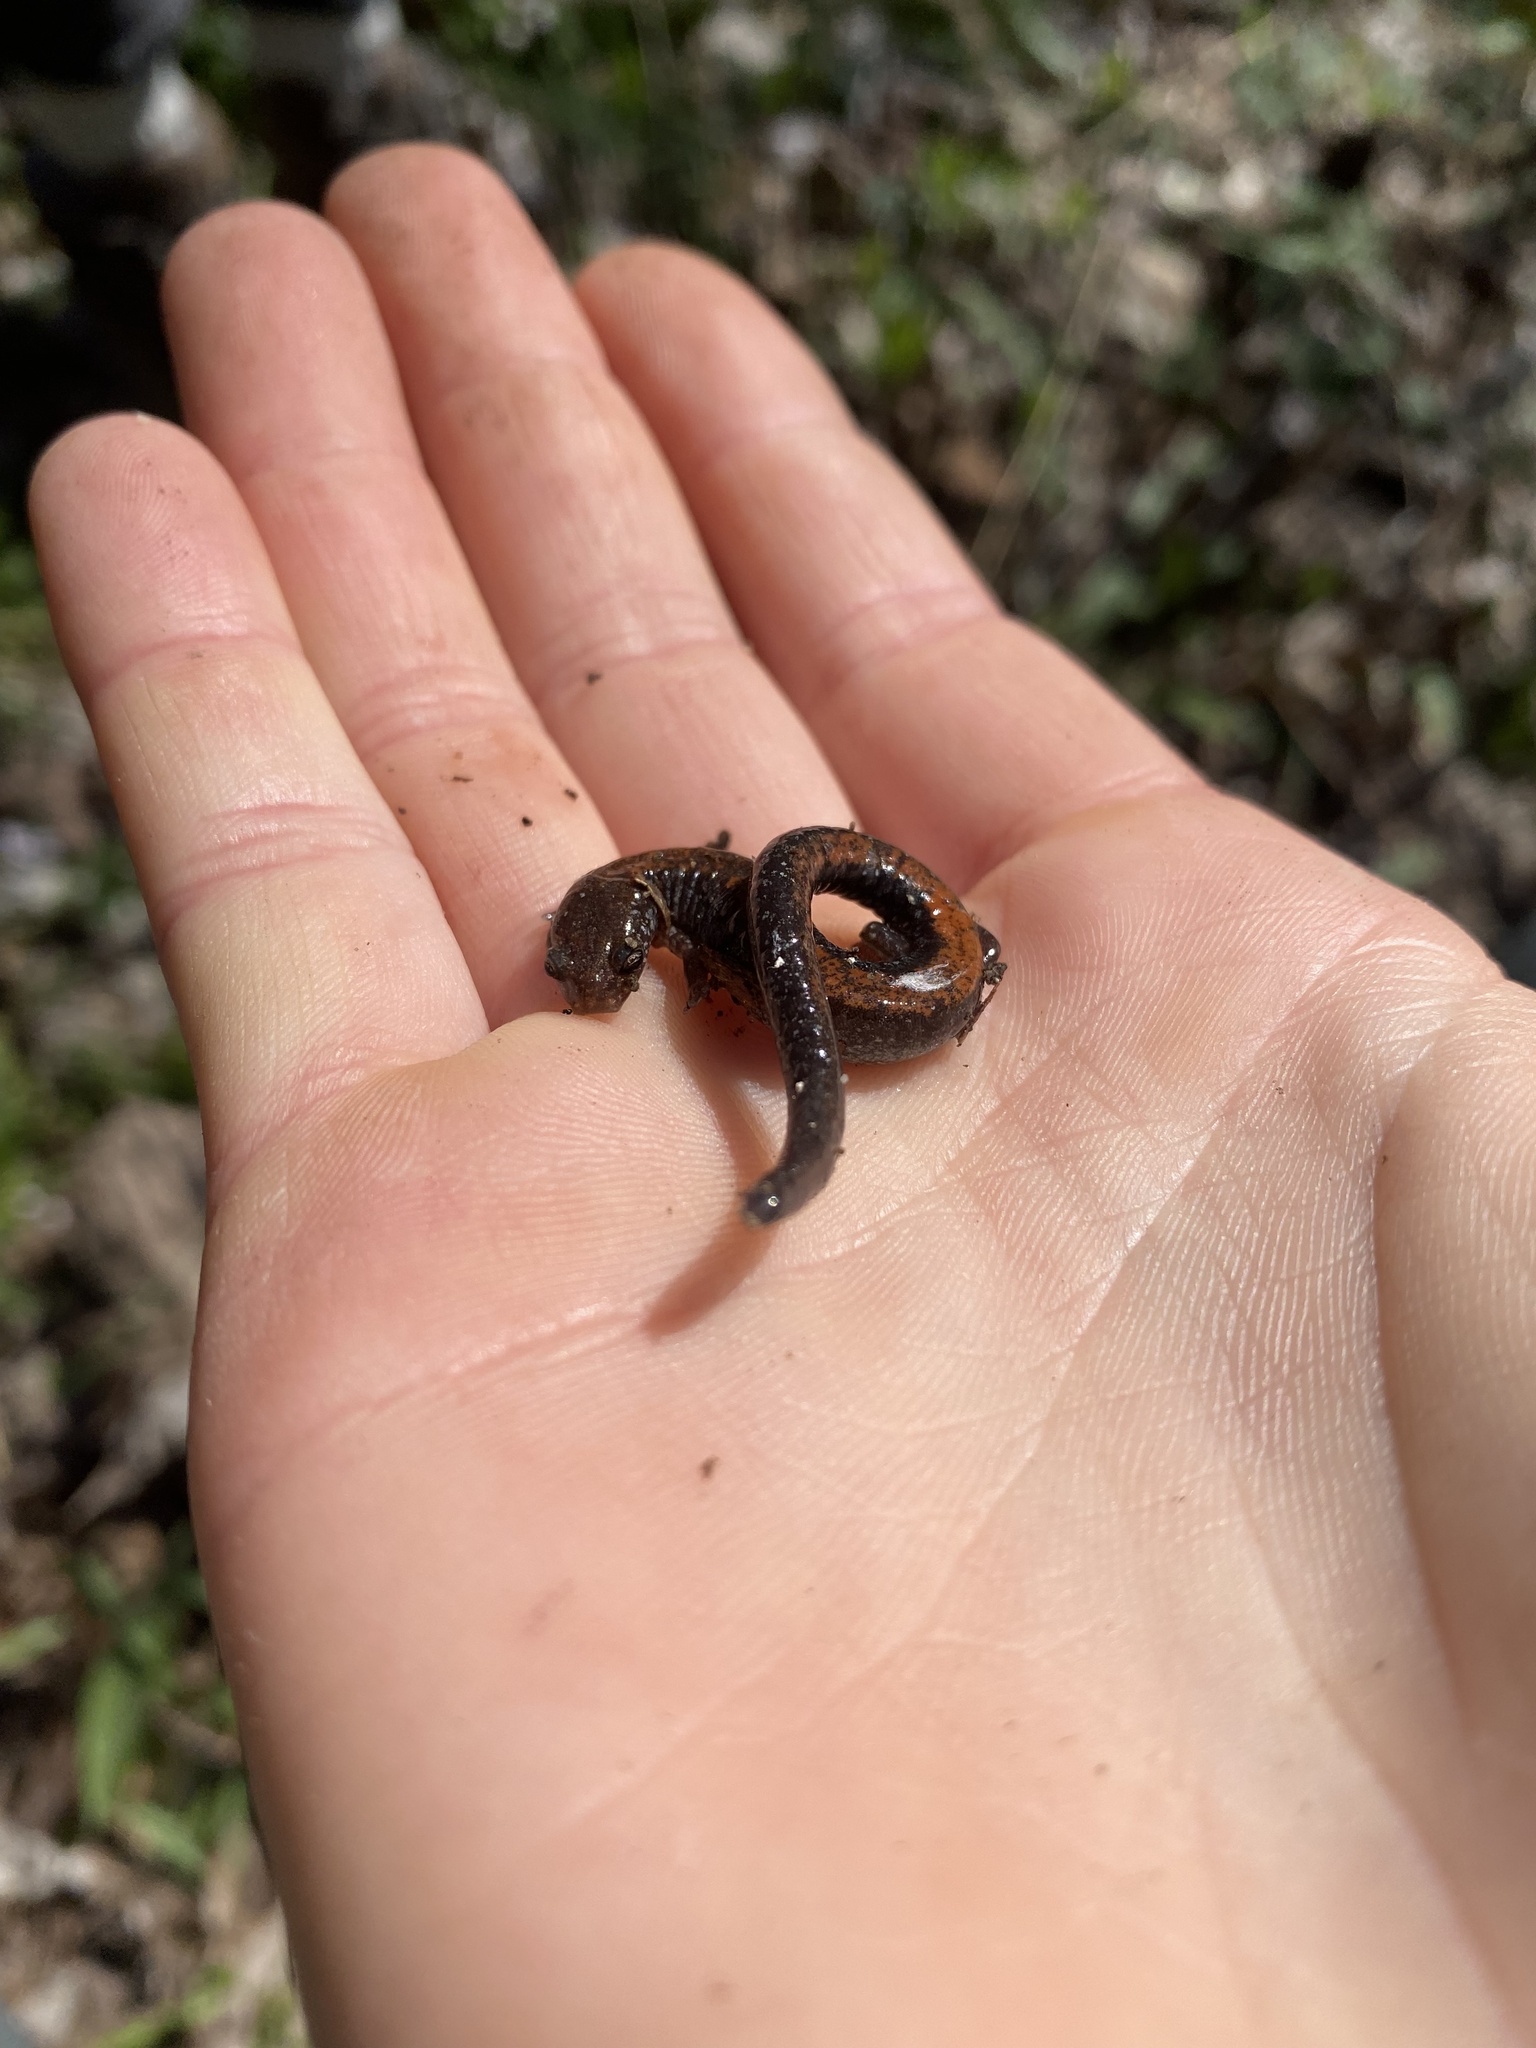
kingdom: Animalia
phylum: Chordata
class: Amphibia
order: Caudata
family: Plethodontidae
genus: Plethodon
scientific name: Plethodon cinereus
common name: Redback salamander
